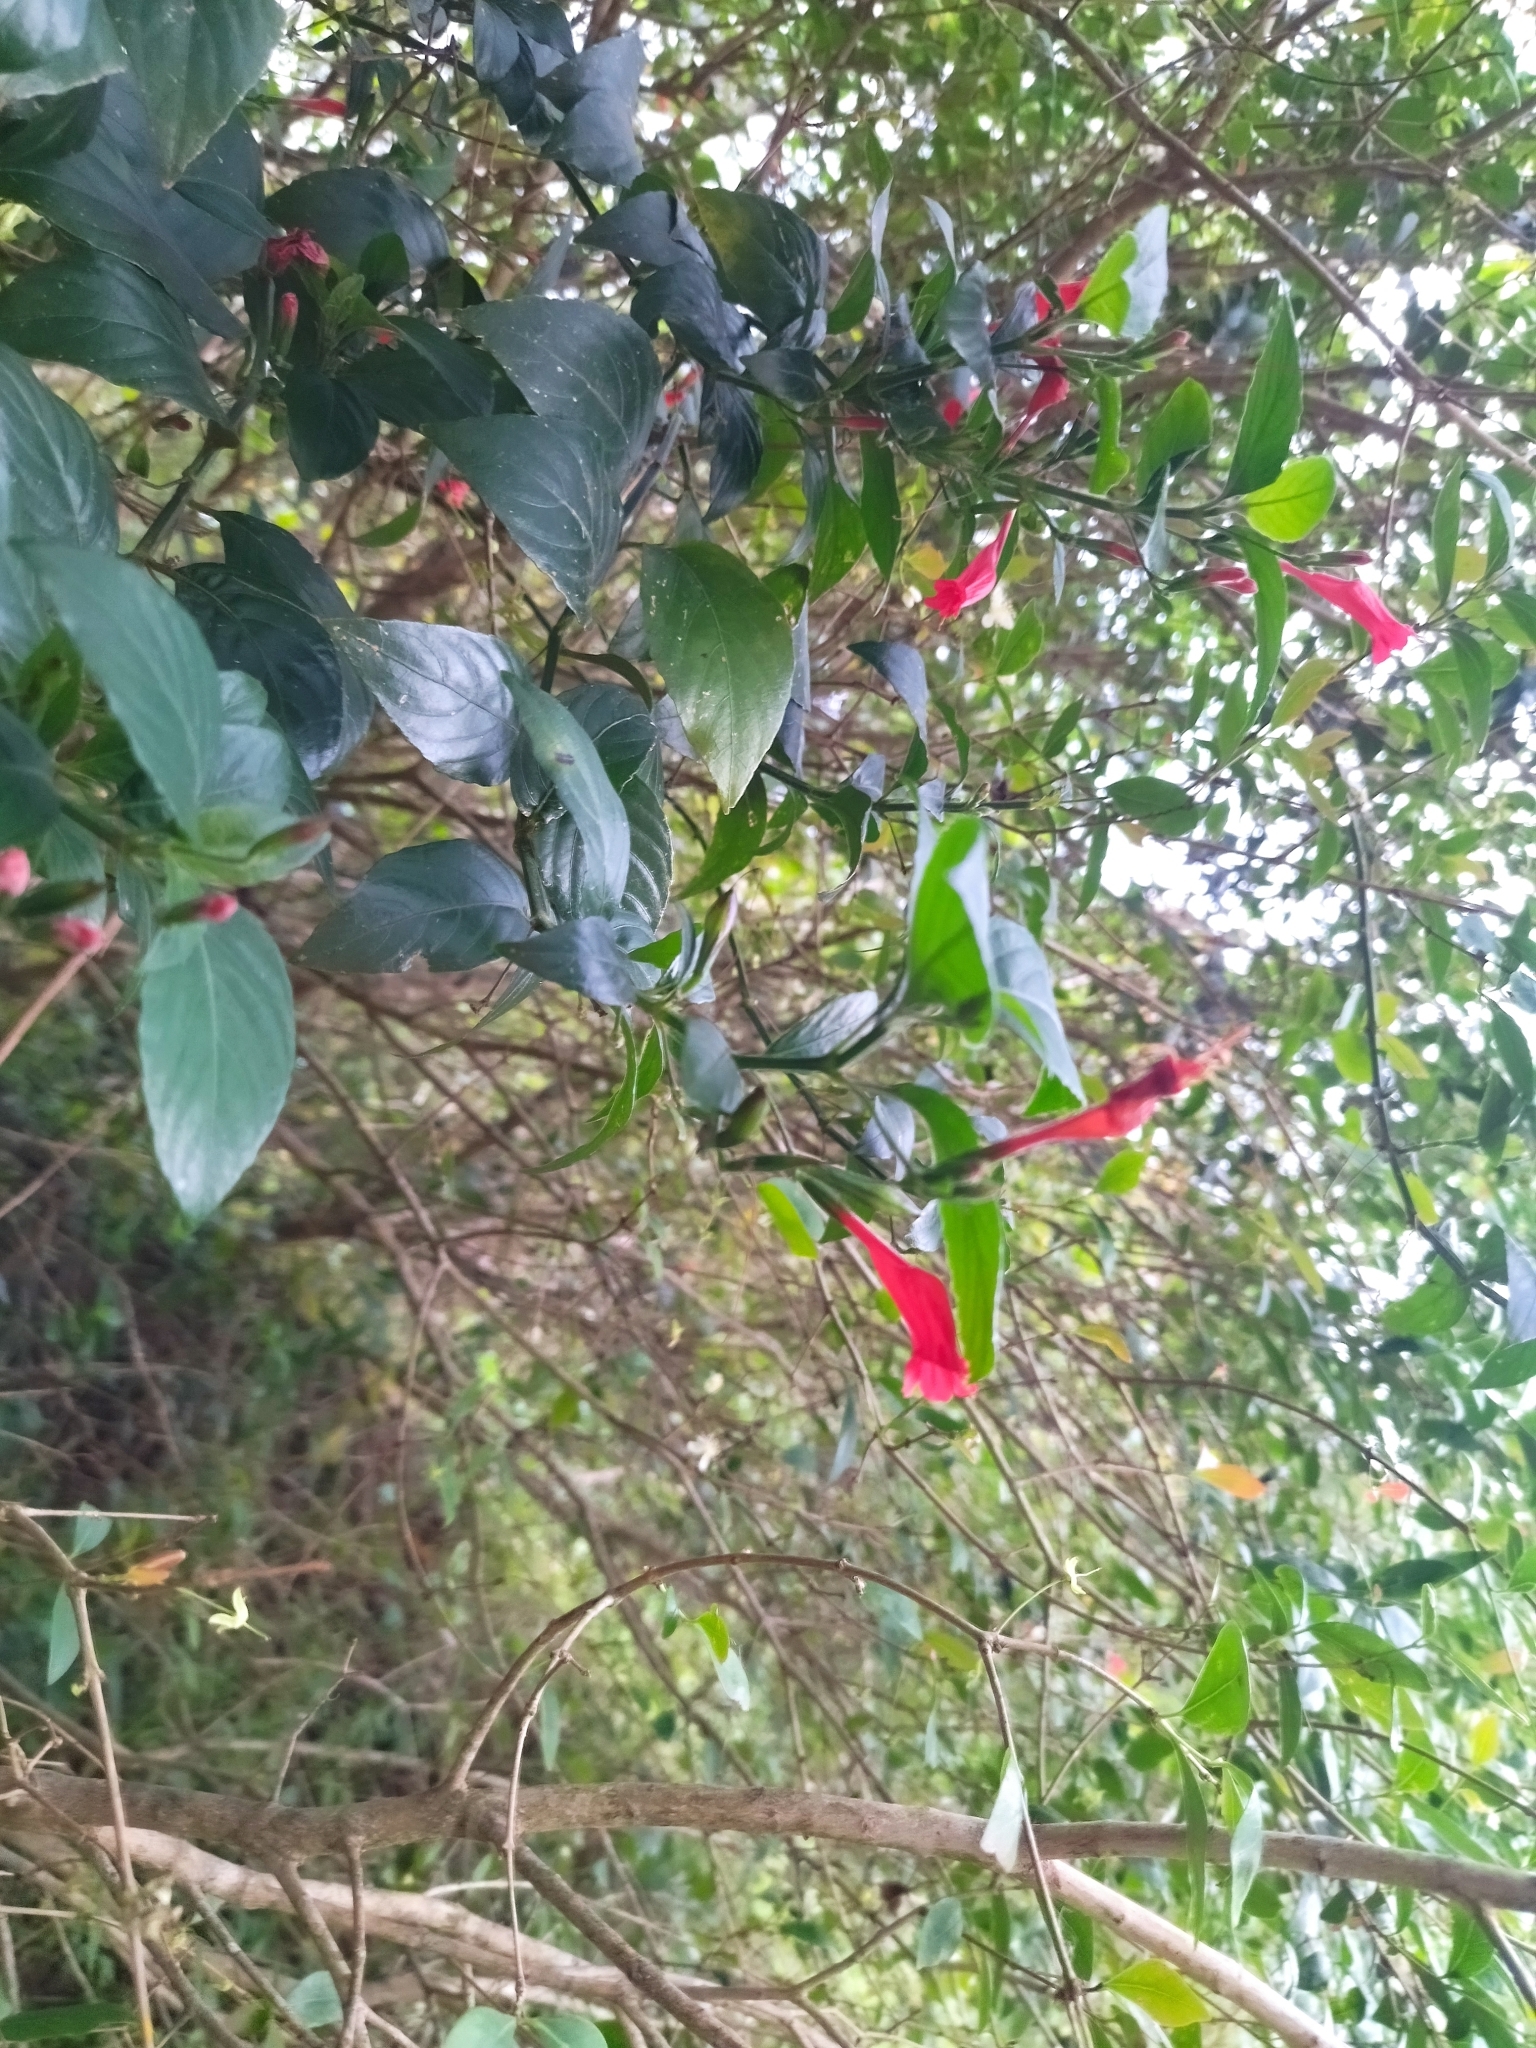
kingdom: Plantae
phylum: Tracheophyta
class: Magnoliopsida
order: Lamiales
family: Acanthaceae
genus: Ruellia
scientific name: Ruellia angustiflora
